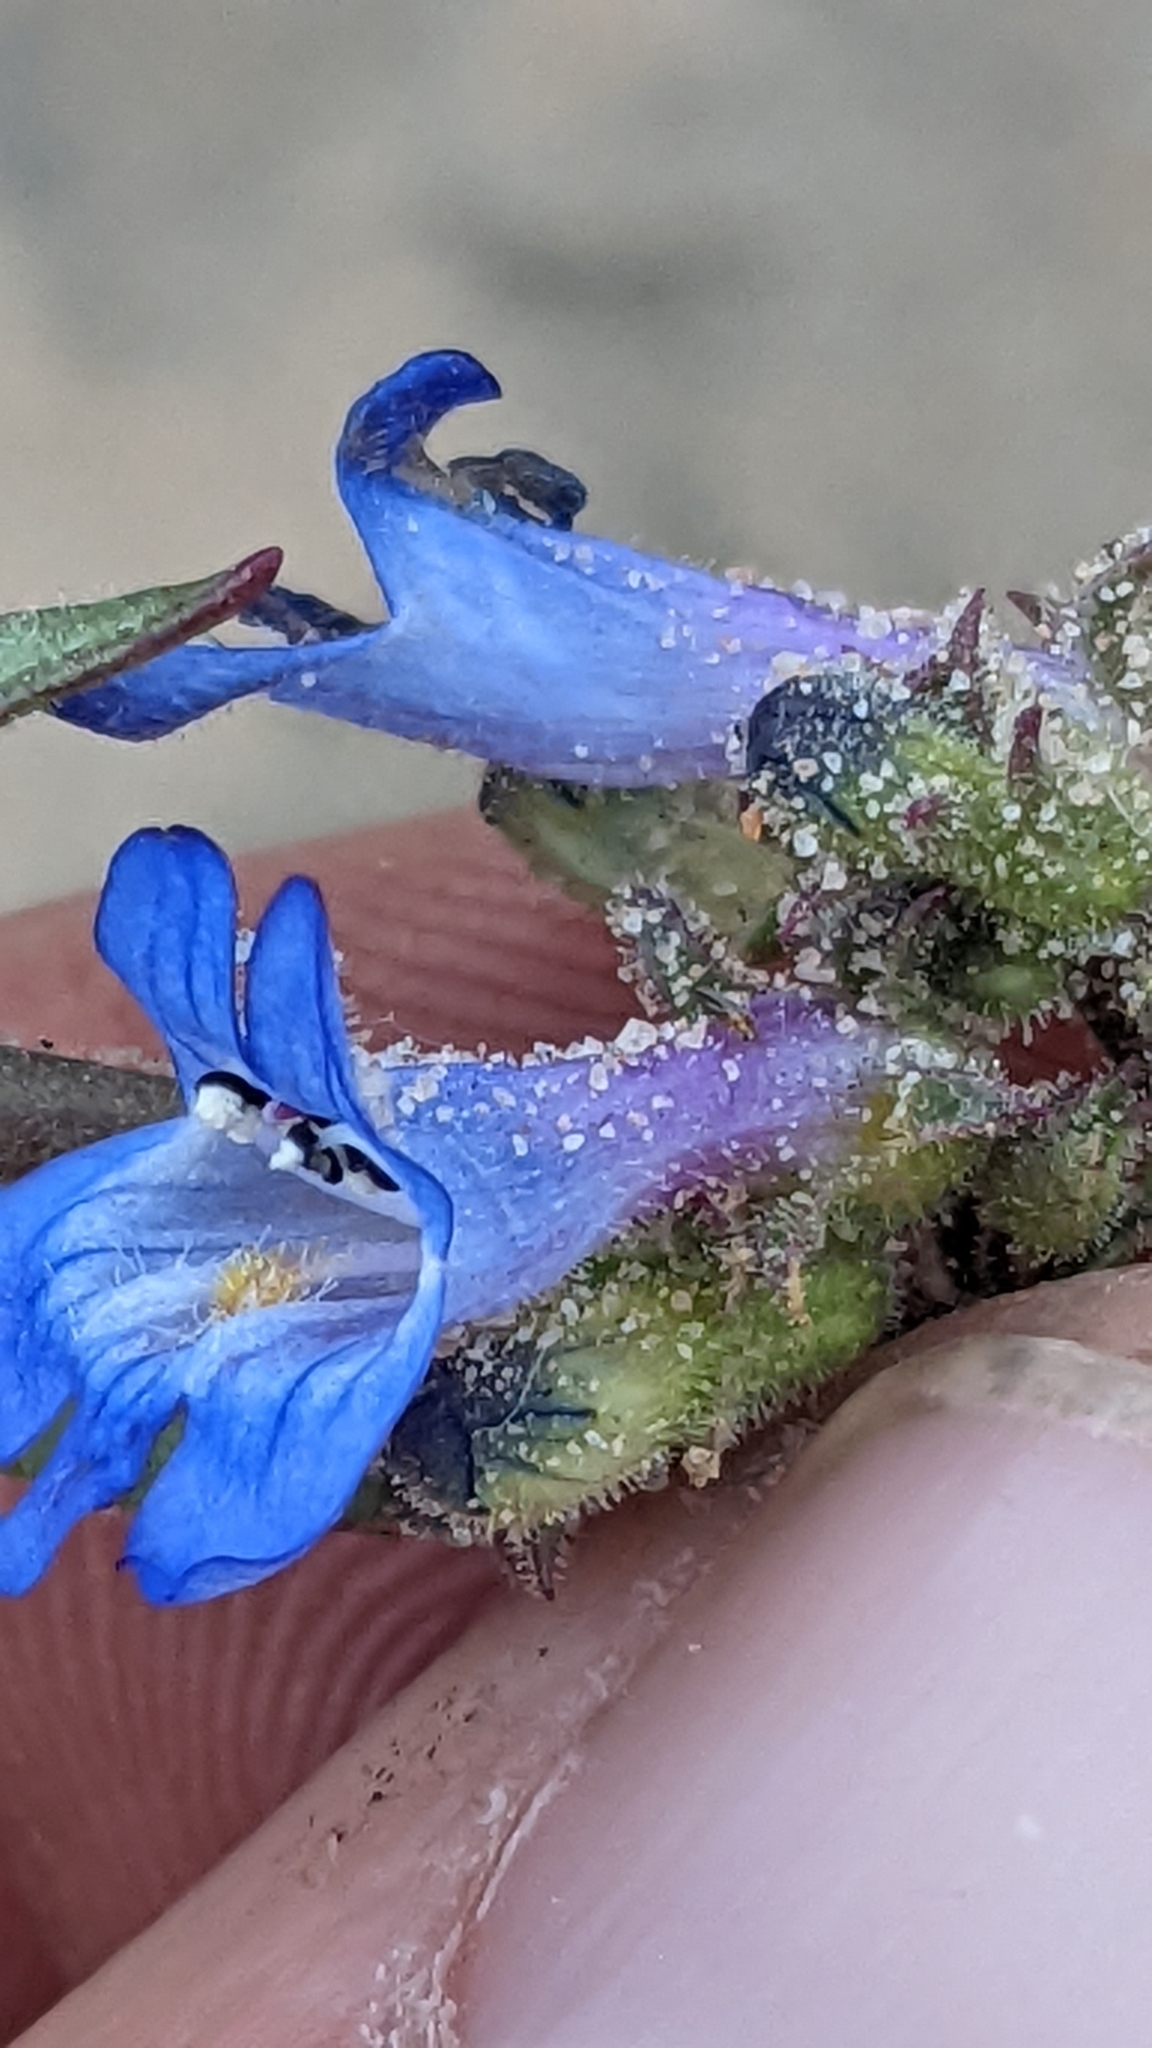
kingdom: Plantae
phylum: Tracheophyta
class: Magnoliopsida
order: Lamiales
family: Plantaginaceae
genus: Penstemon
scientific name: Penstemon humilis
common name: Low penstemon
